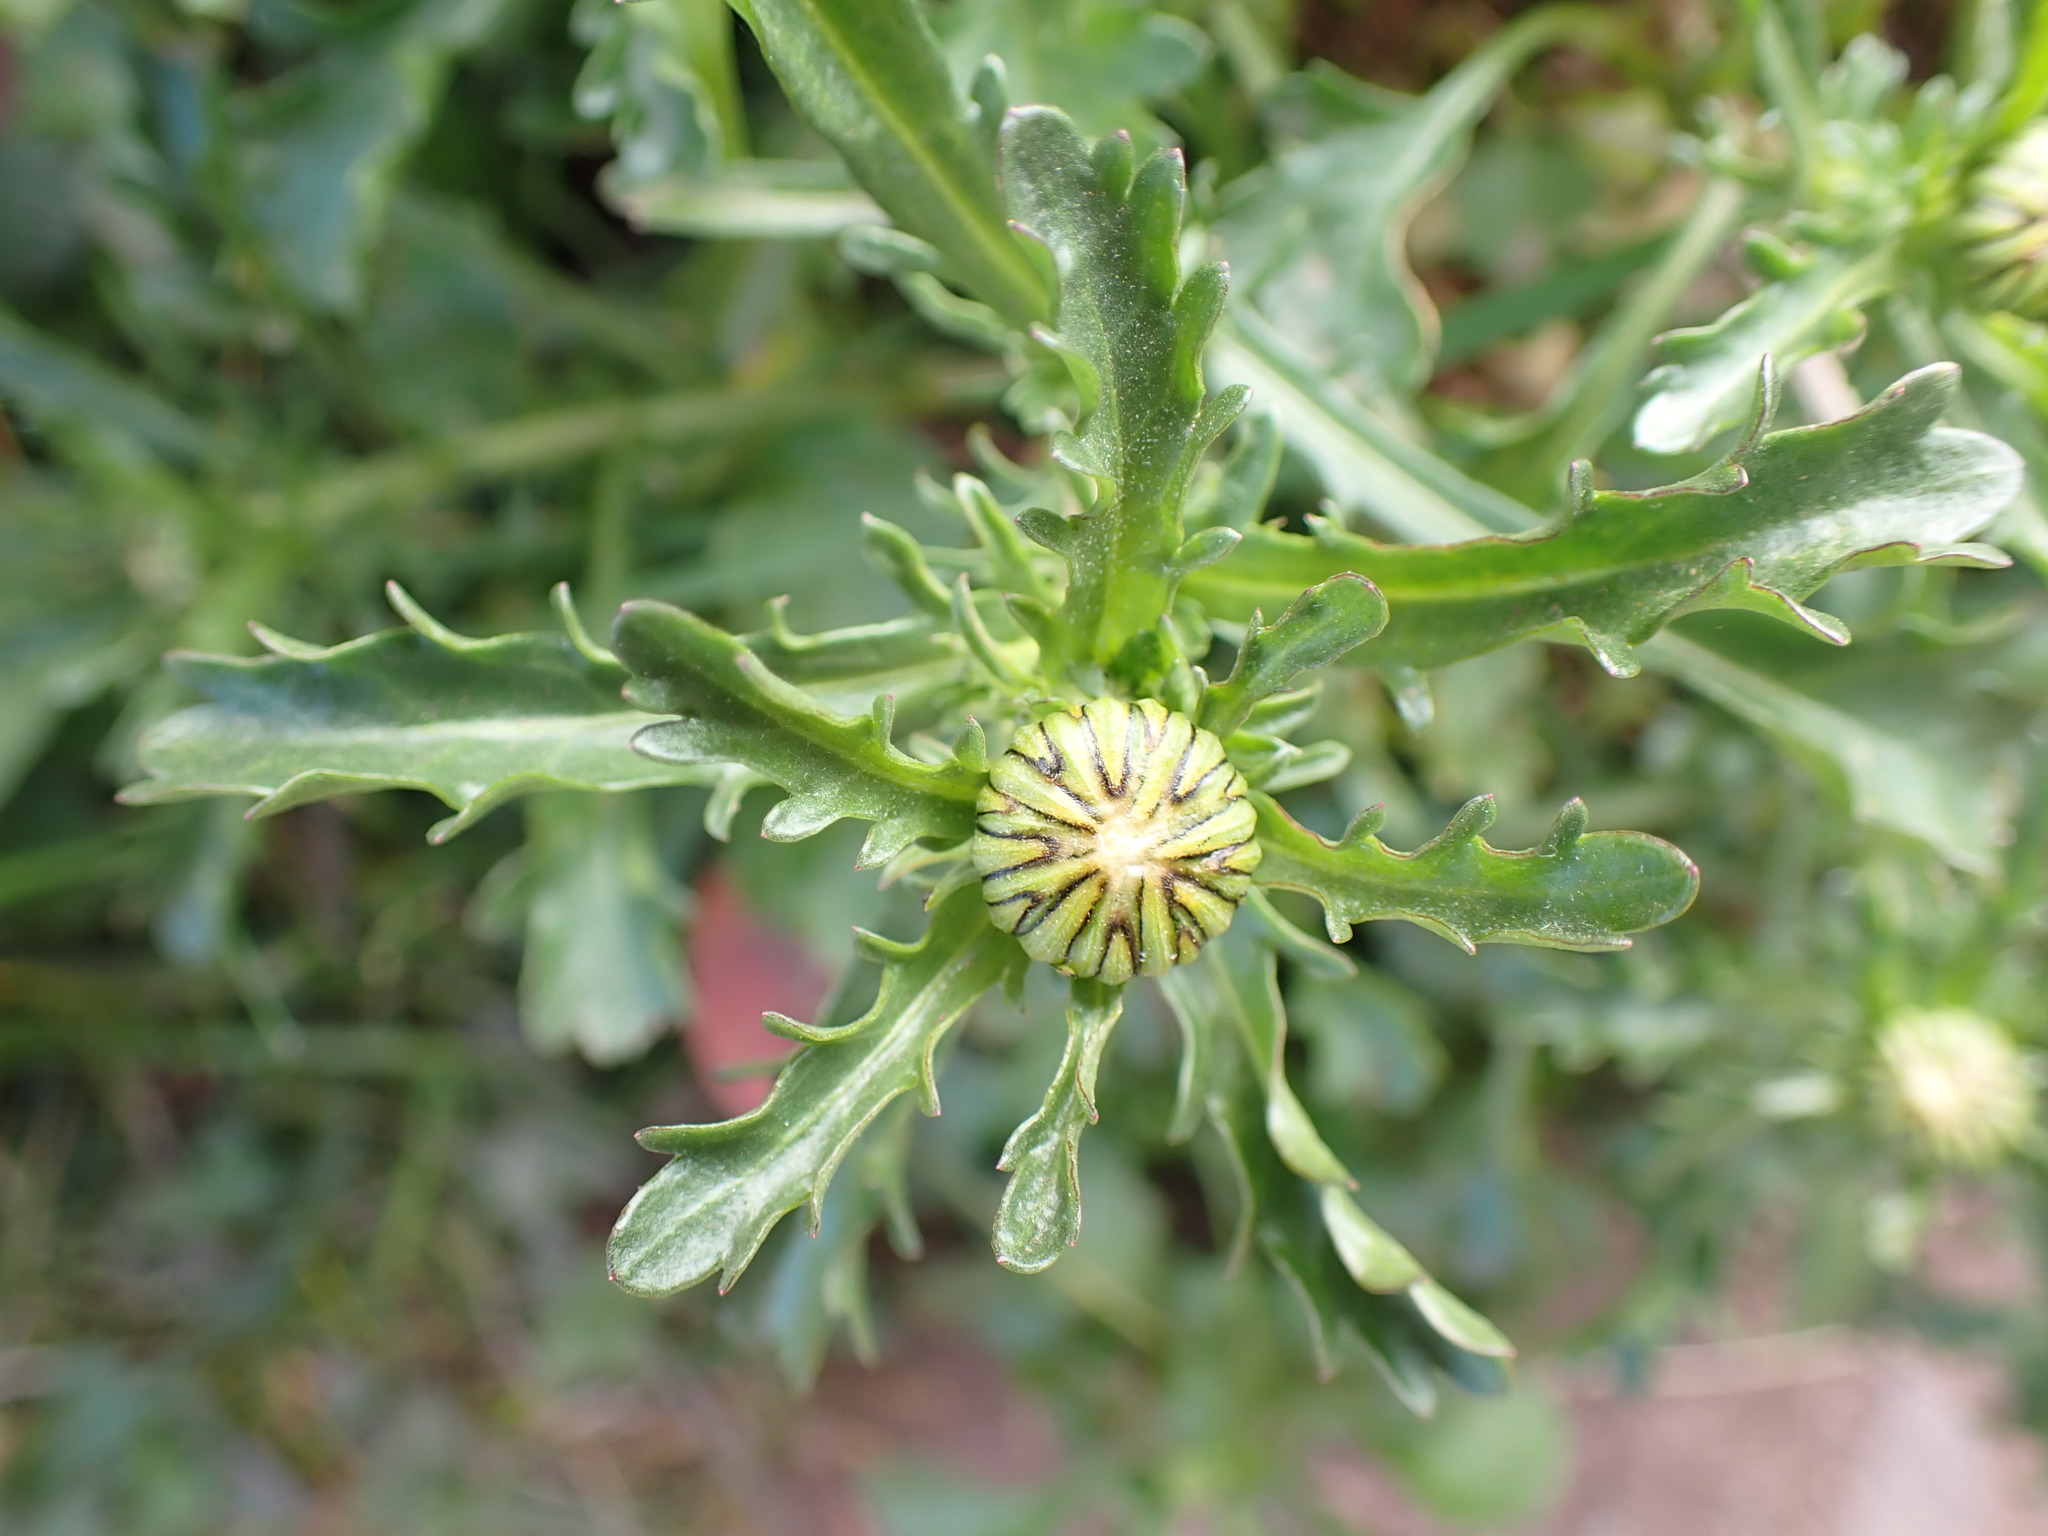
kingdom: Plantae
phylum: Tracheophyta
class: Magnoliopsida
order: Asterales
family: Asteraceae
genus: Leucanthemum
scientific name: Leucanthemum vulgare
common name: Oxeye daisy
